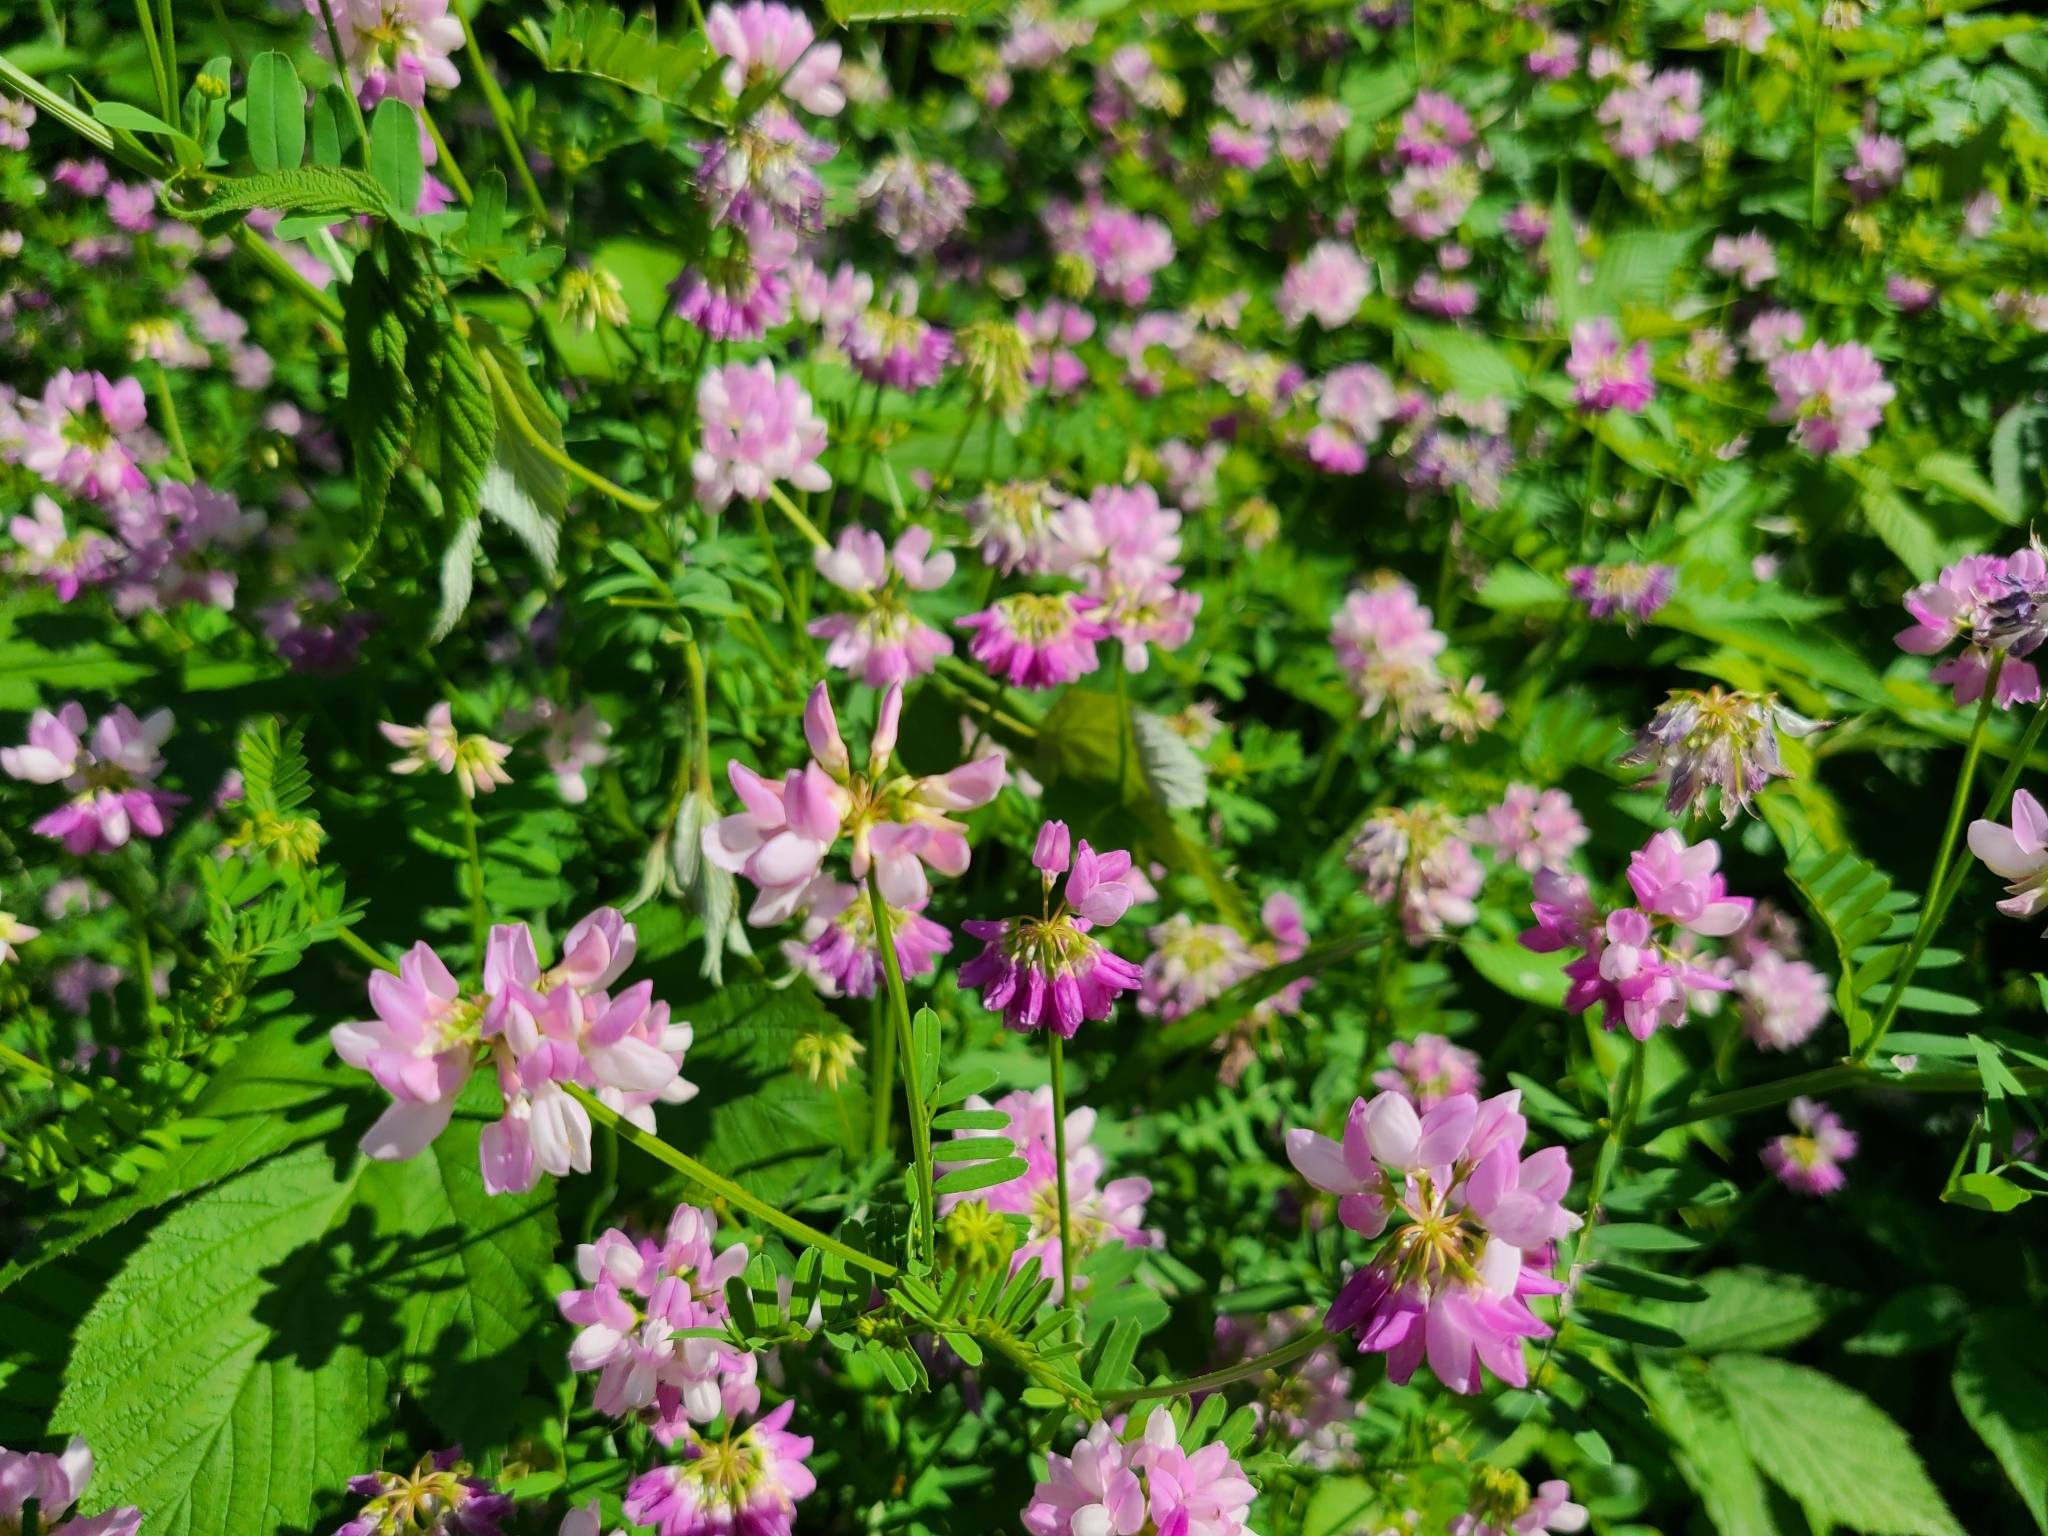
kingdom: Plantae
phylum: Tracheophyta
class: Magnoliopsida
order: Fabales
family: Fabaceae
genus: Coronilla
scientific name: Coronilla varia
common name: Crownvetch
